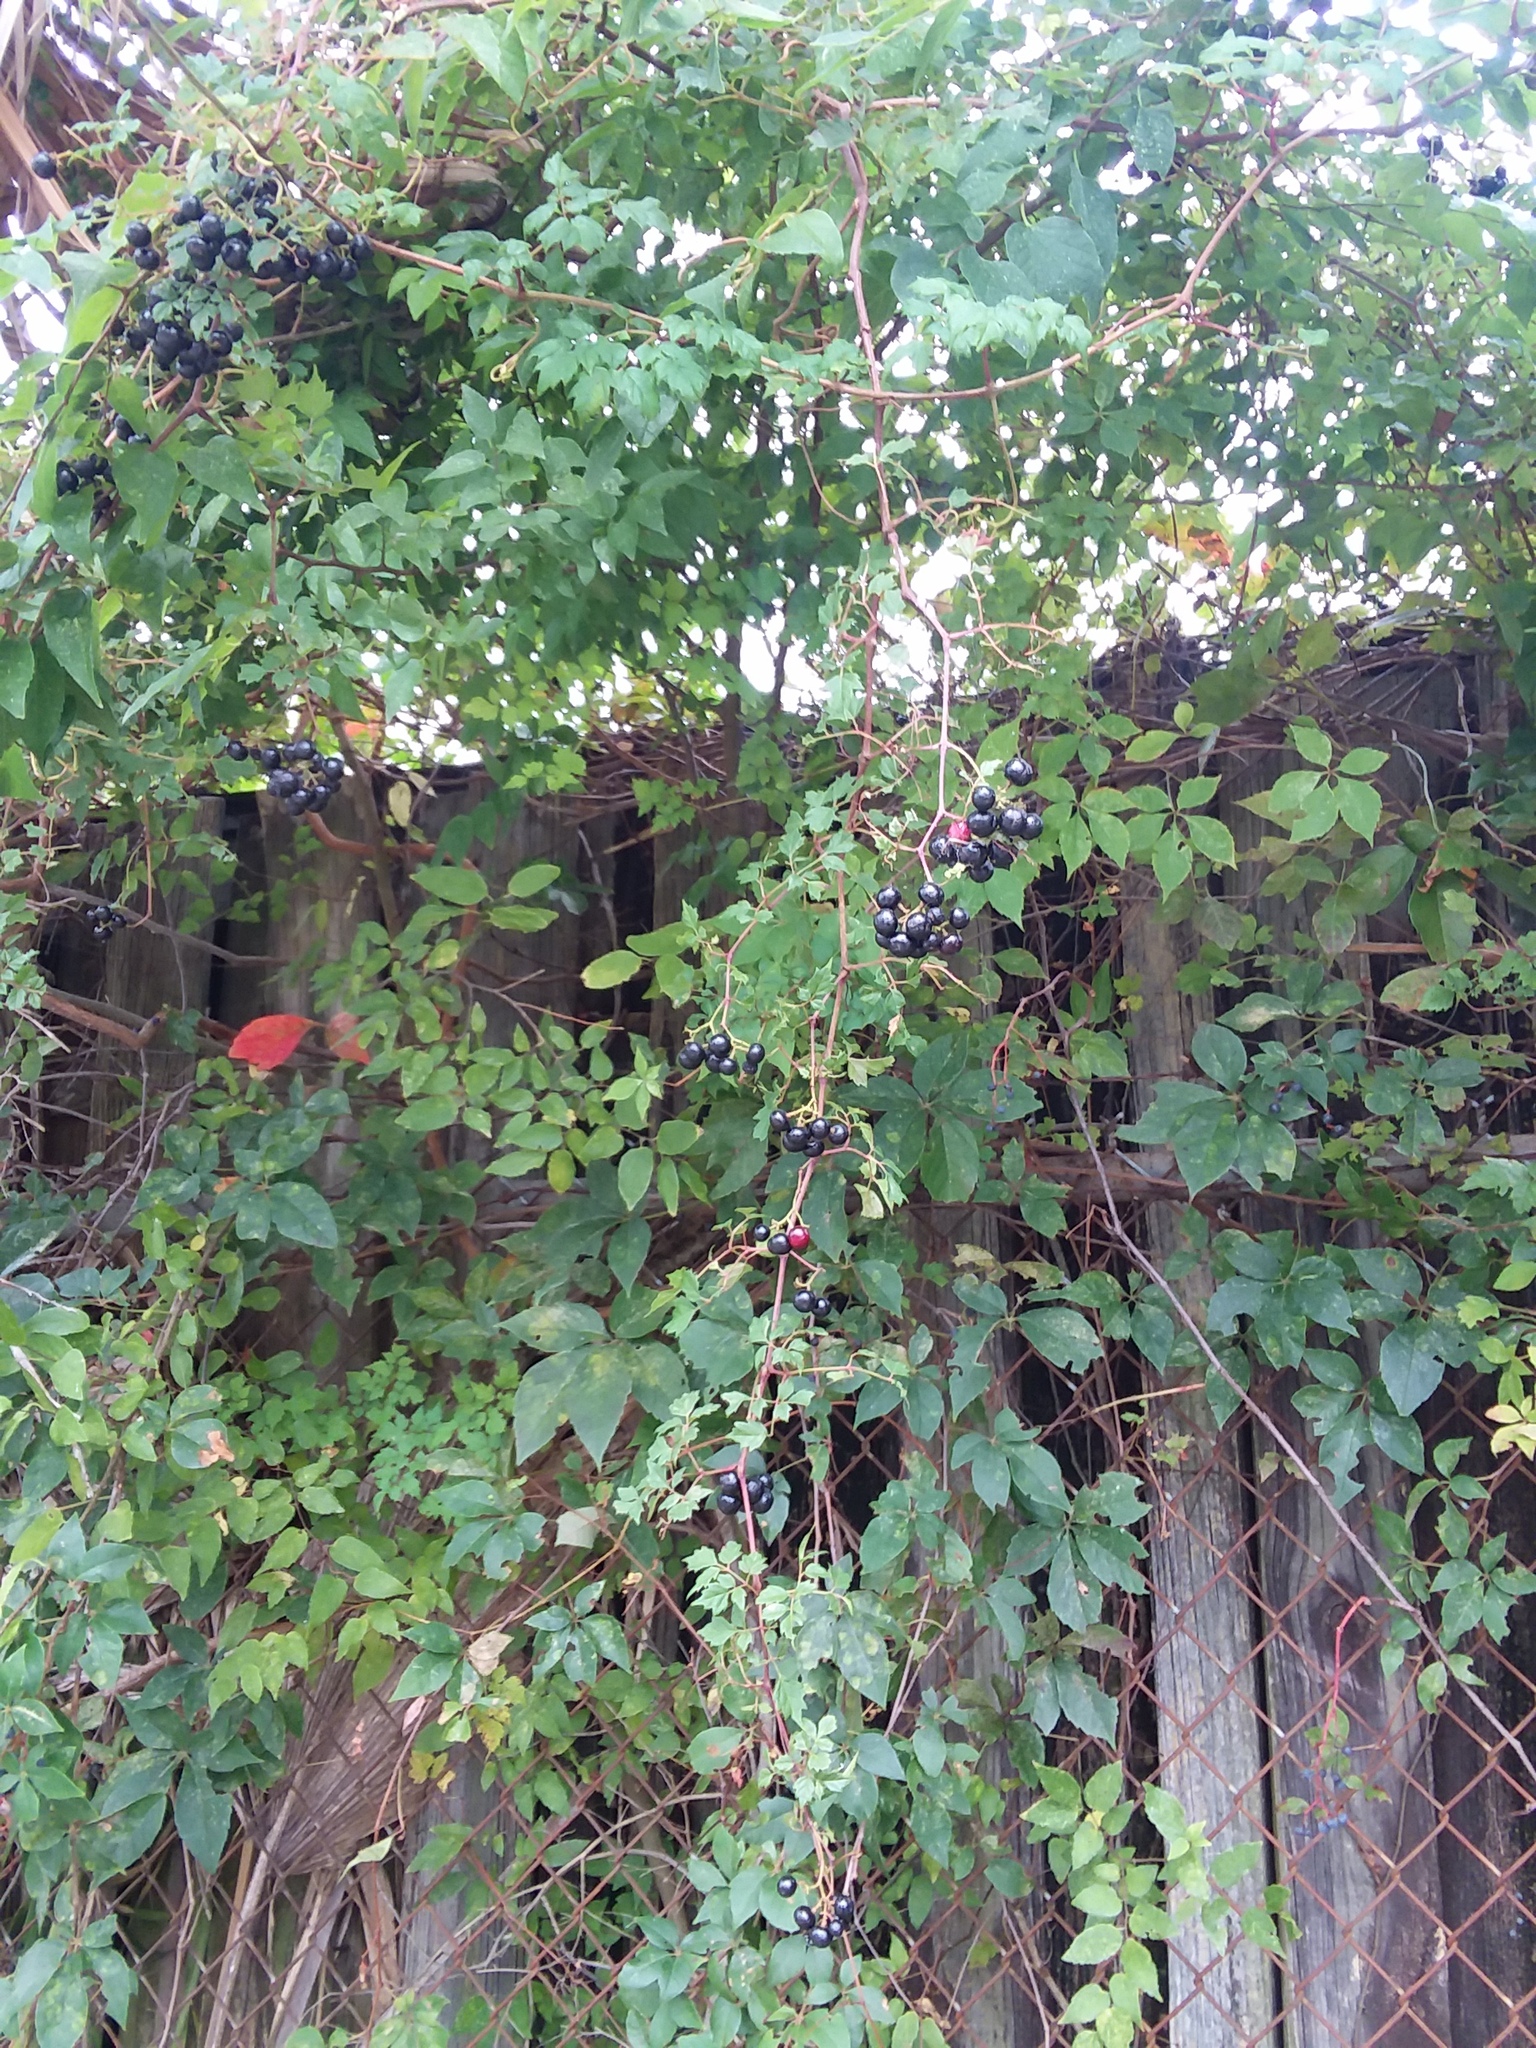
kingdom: Plantae
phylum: Tracheophyta
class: Magnoliopsida
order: Vitales
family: Vitaceae
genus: Nekemias
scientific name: Nekemias arborea
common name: Peppervine
